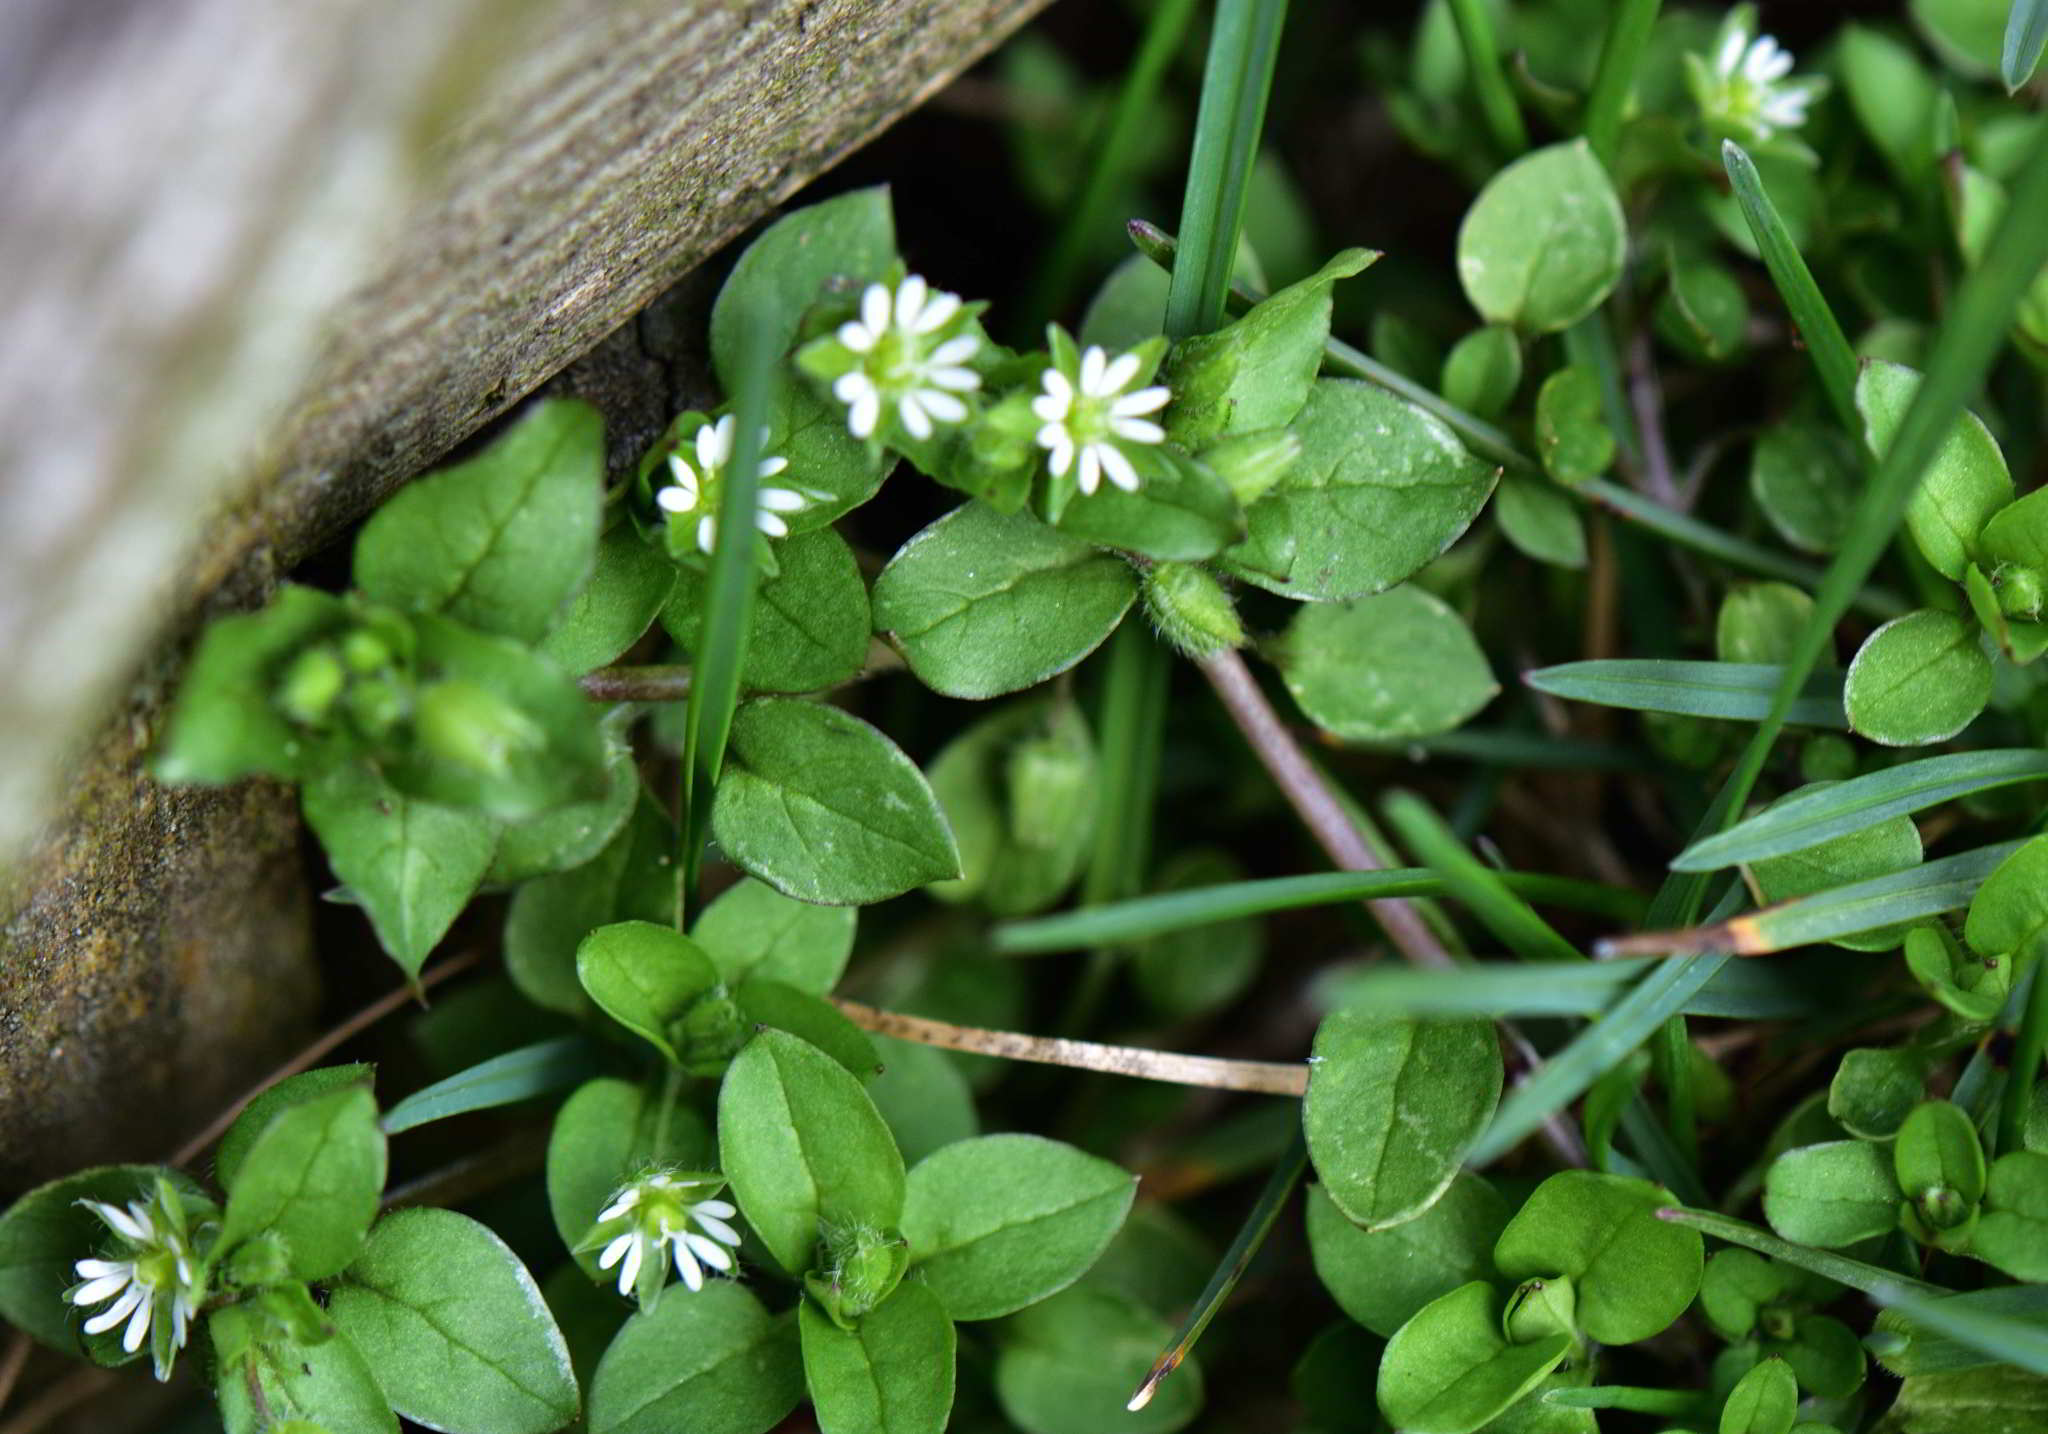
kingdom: Plantae
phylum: Tracheophyta
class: Magnoliopsida
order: Caryophyllales
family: Caryophyllaceae
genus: Stellaria
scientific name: Stellaria media
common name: Common chickweed
